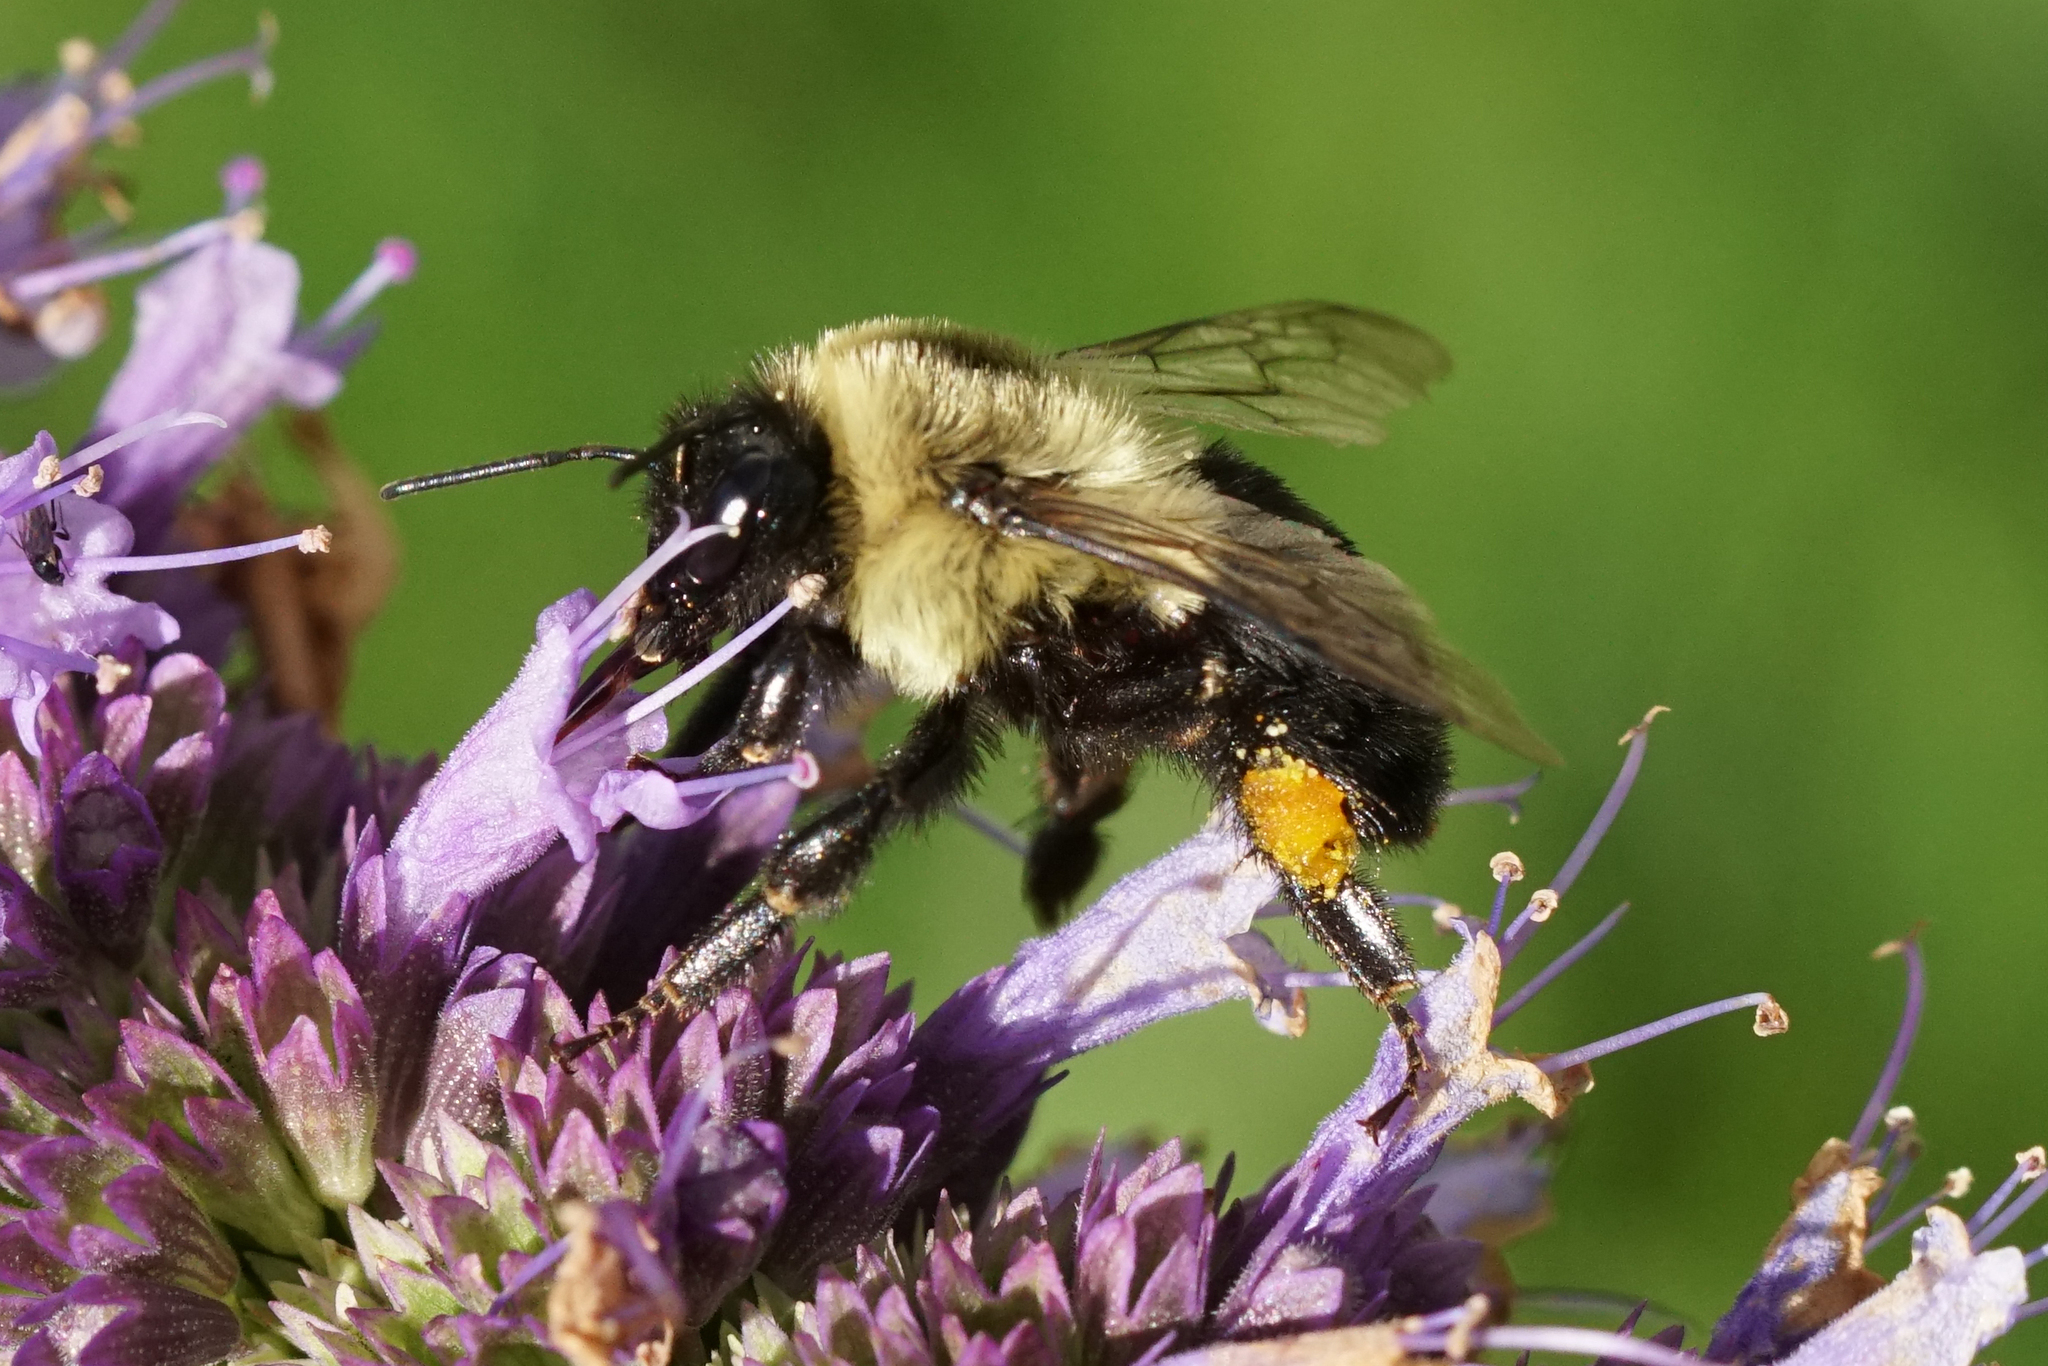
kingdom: Animalia
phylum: Arthropoda
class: Insecta
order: Hymenoptera
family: Apidae
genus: Bombus
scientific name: Bombus impatiens
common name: Common eastern bumble bee
